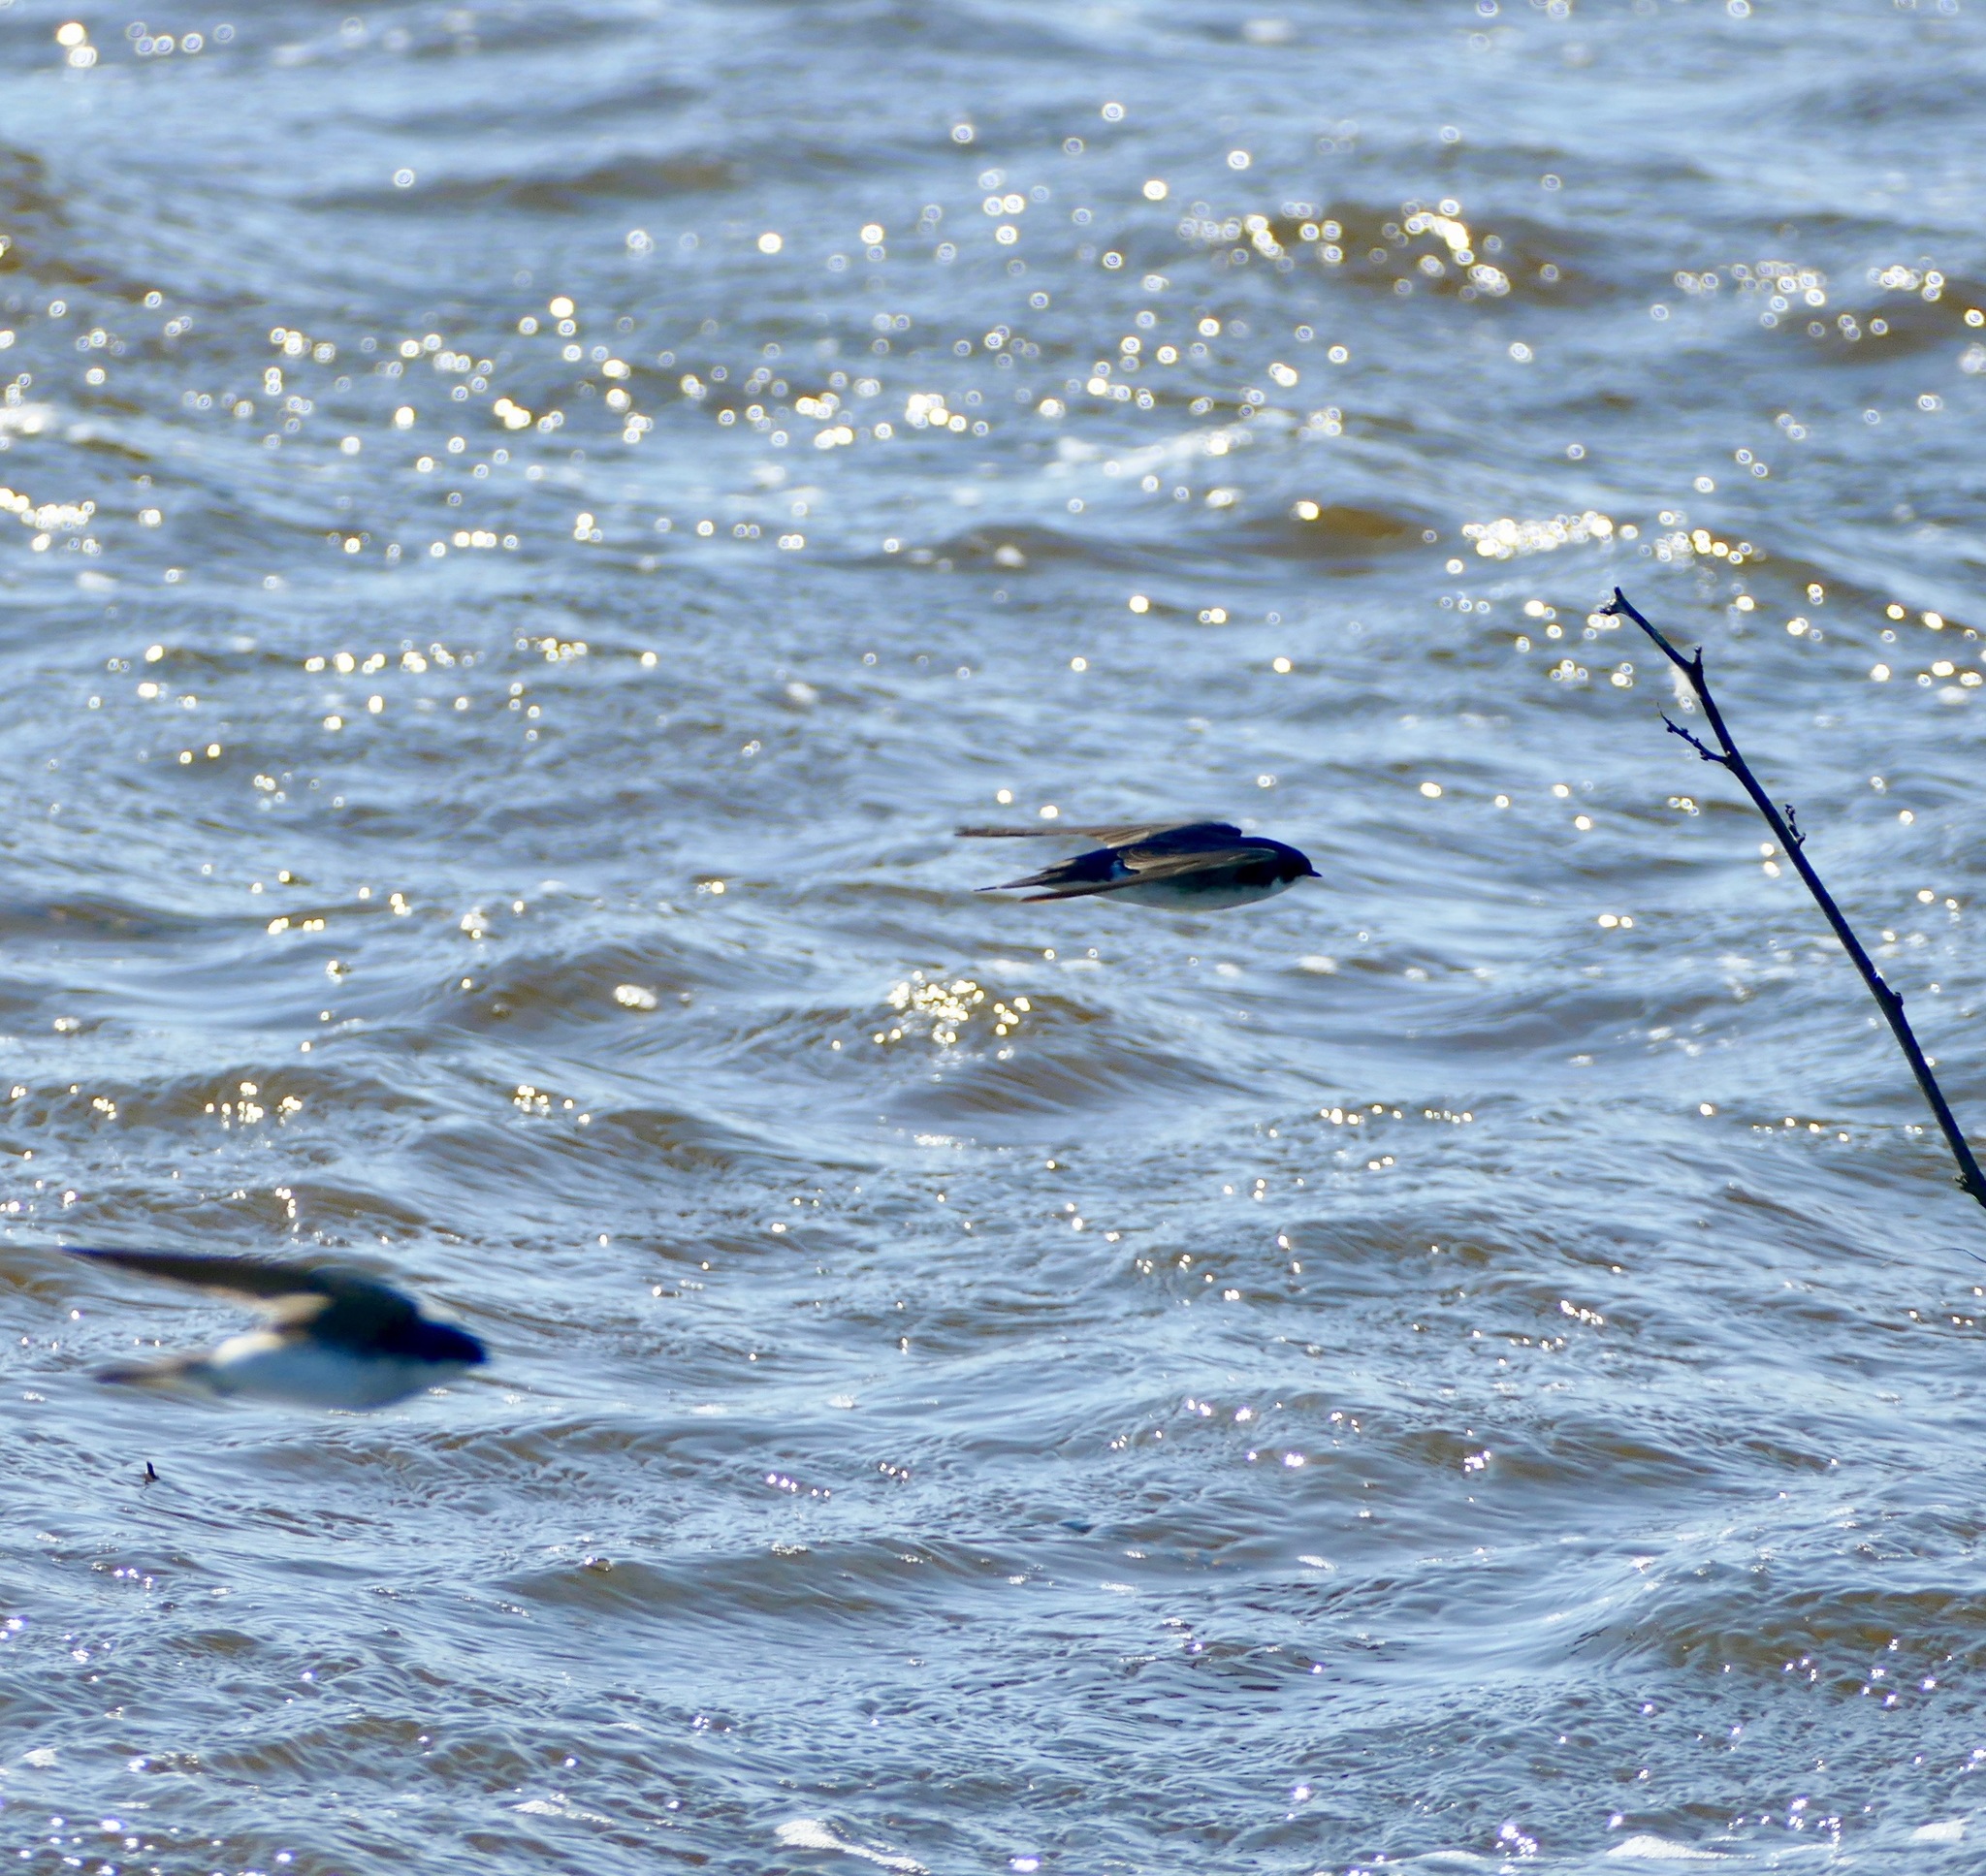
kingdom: Animalia
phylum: Chordata
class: Aves
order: Passeriformes
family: Hirundinidae
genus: Tachycineta
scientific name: Tachycineta bicolor
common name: Tree swallow
